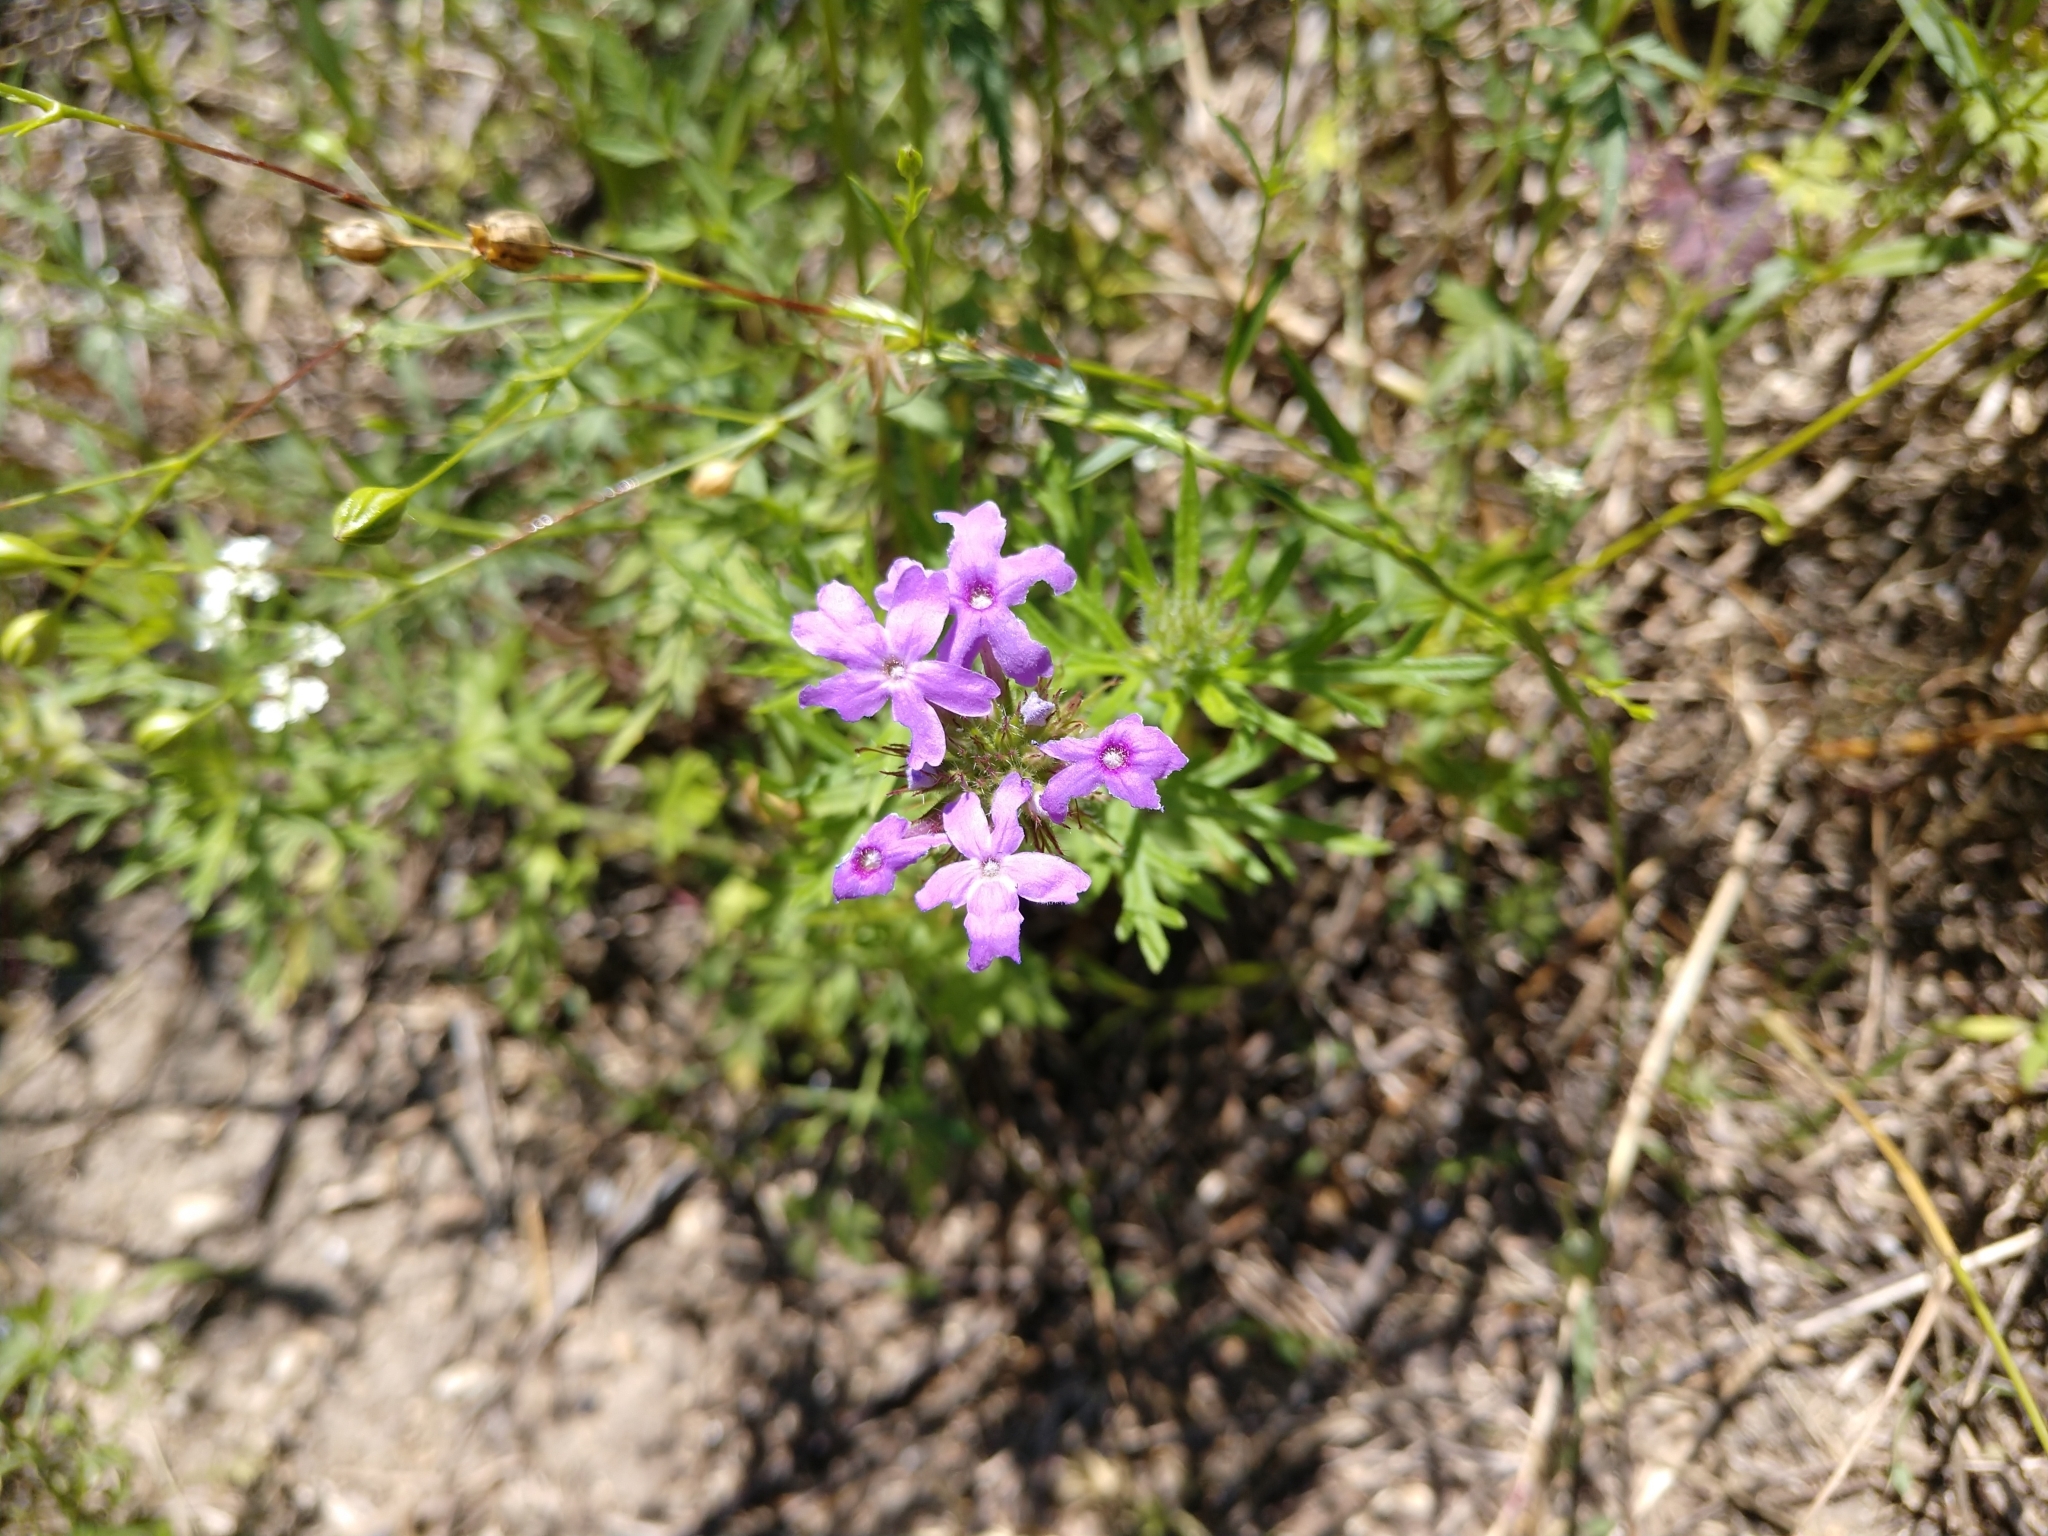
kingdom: Plantae
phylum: Tracheophyta
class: Magnoliopsida
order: Lamiales
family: Verbenaceae
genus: Verbena
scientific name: Verbena bipinnatifida
